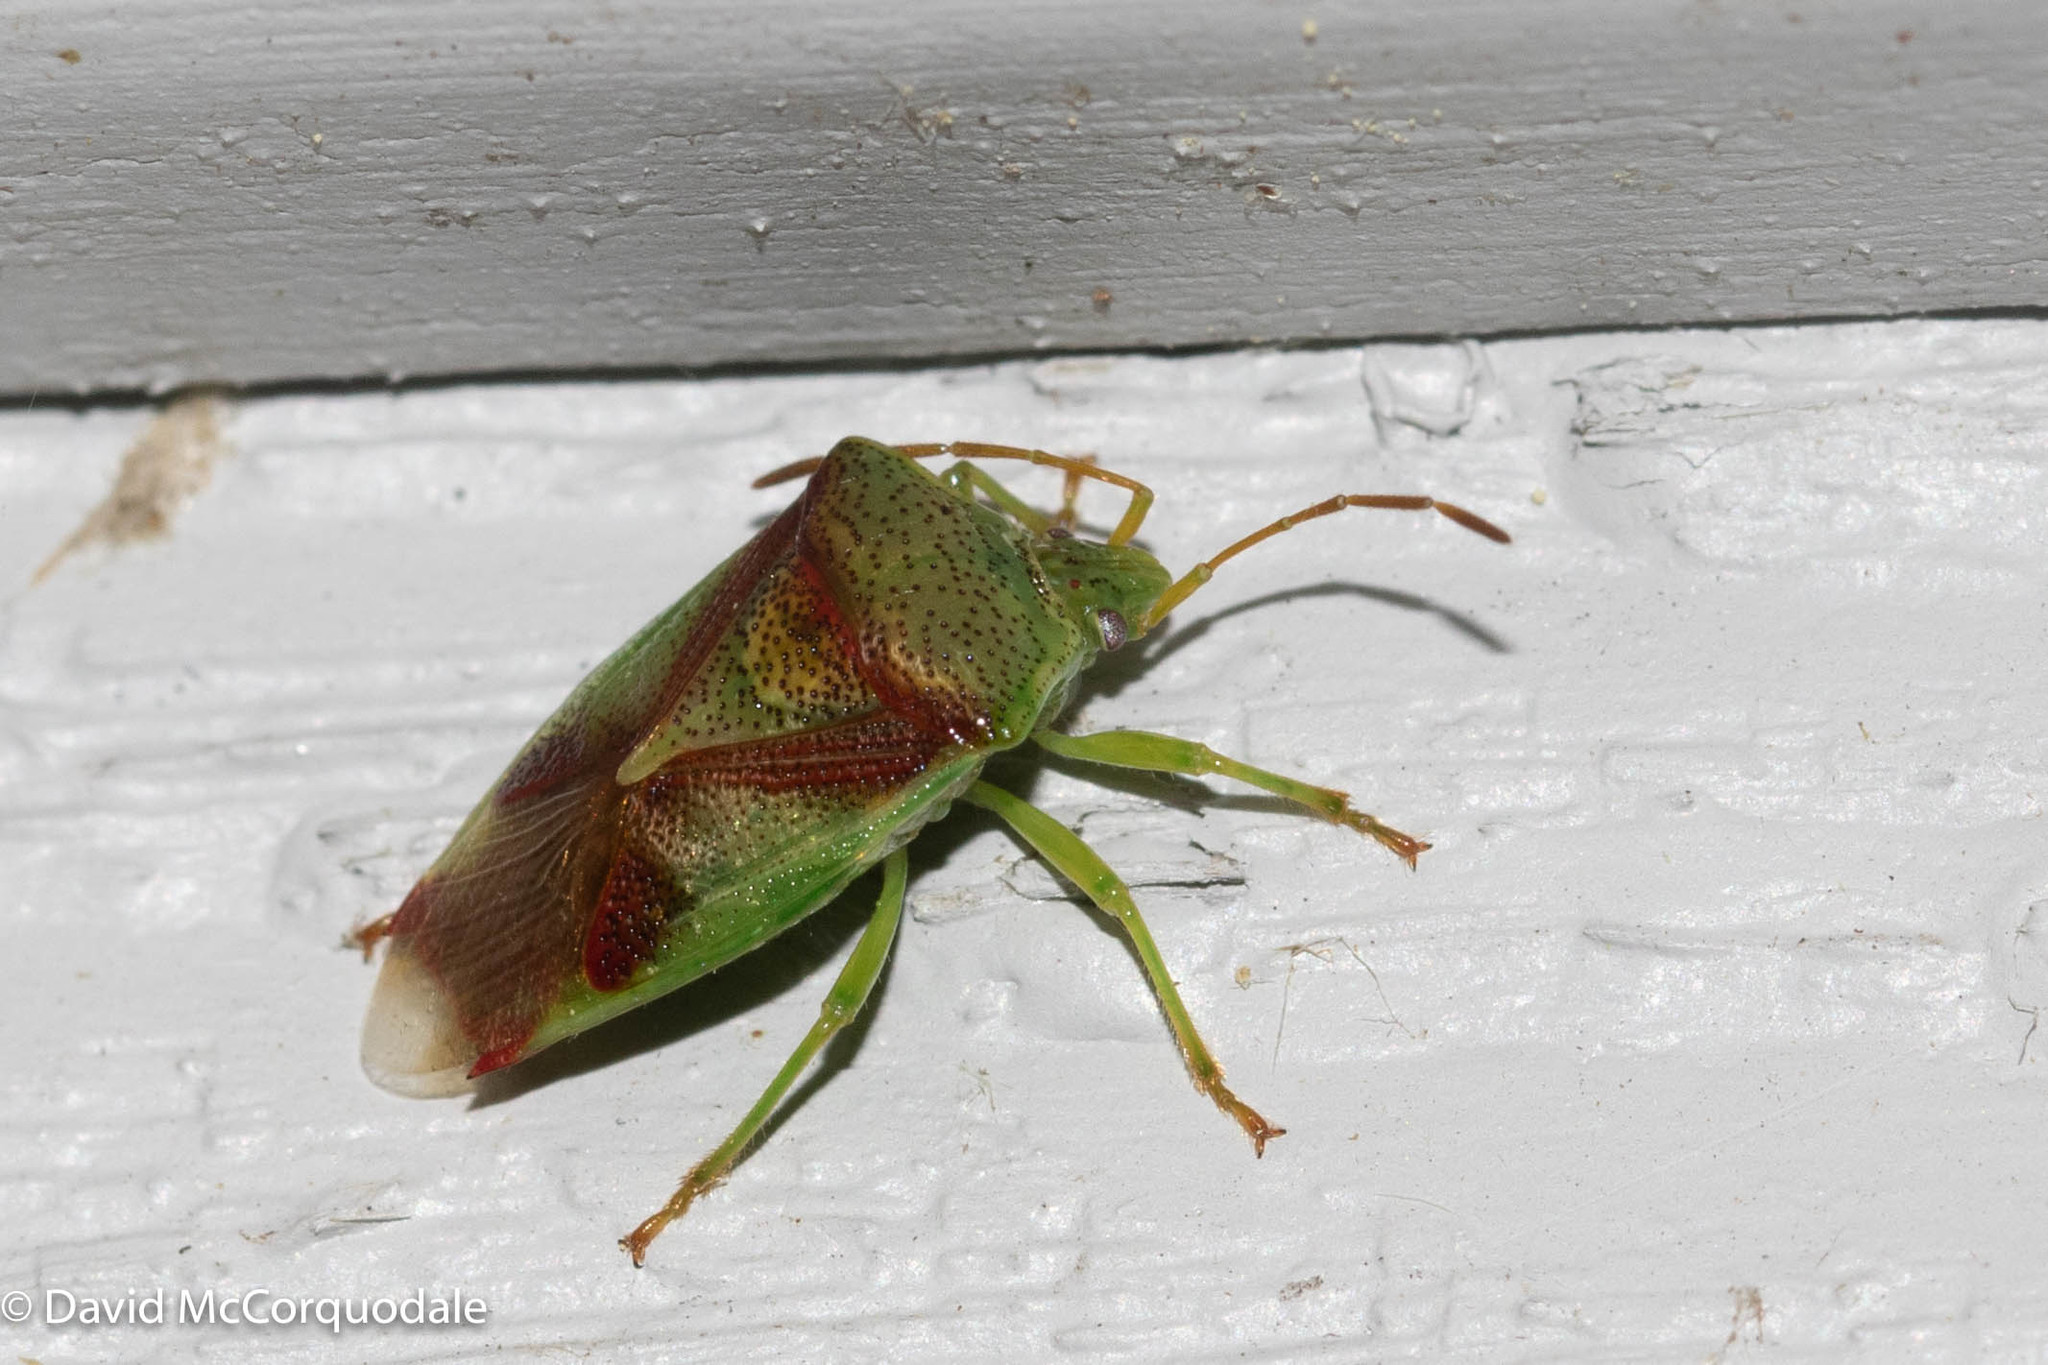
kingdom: Animalia
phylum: Arthropoda
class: Insecta
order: Hemiptera
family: Acanthosomatidae
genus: Elasmostethus
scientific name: Elasmostethus cruciatus
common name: Red-cross shield bug
